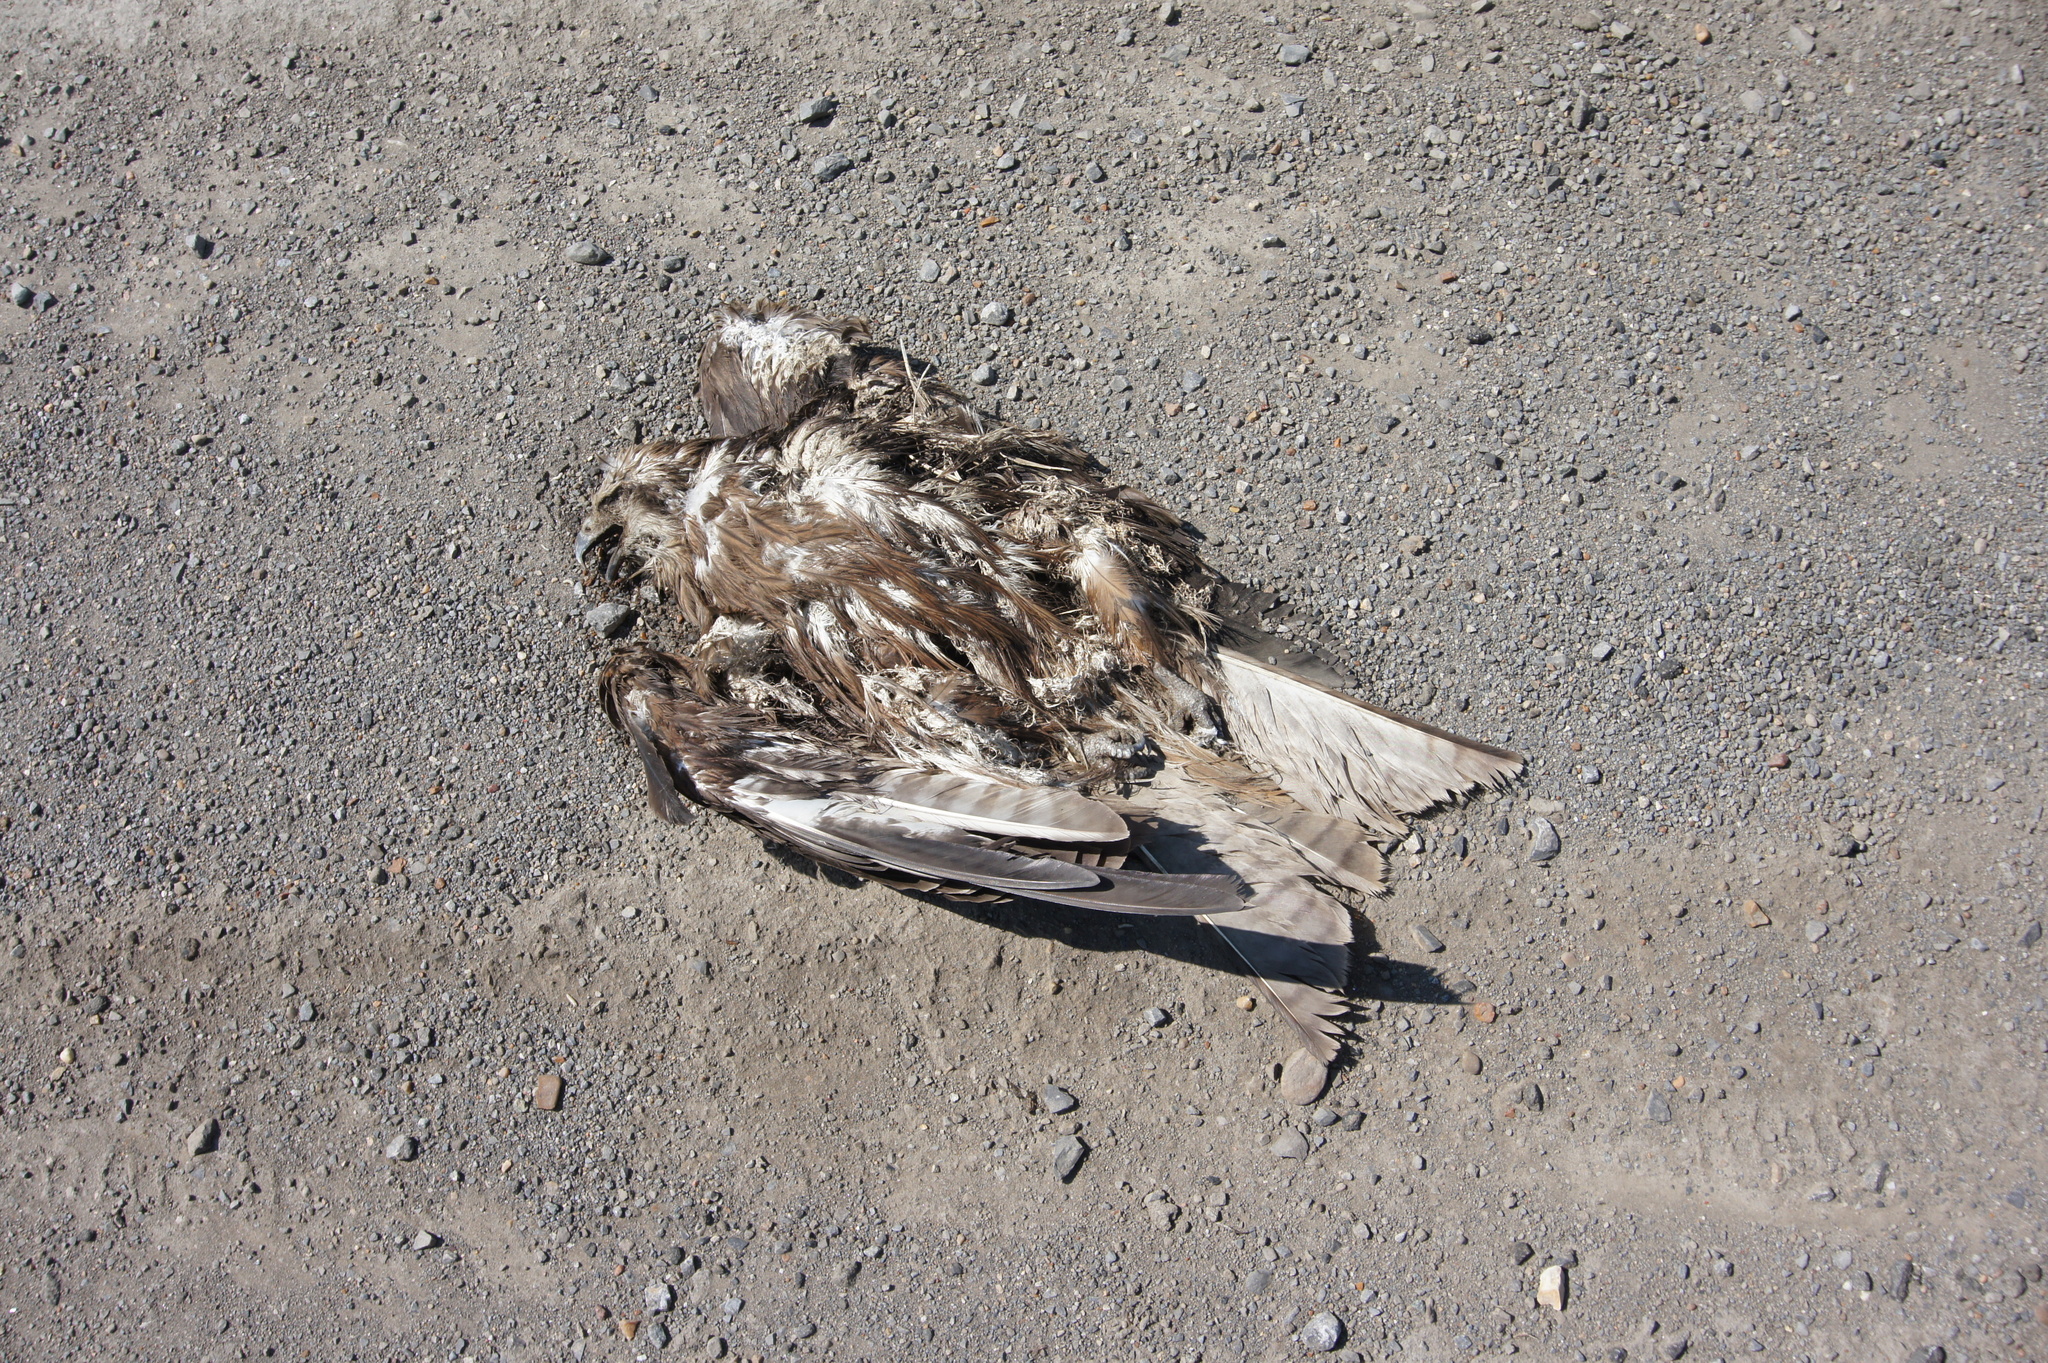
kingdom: Animalia
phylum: Chordata
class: Aves
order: Accipitriformes
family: Accipitridae
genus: Milvus
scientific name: Milvus migrans
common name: Black kite
